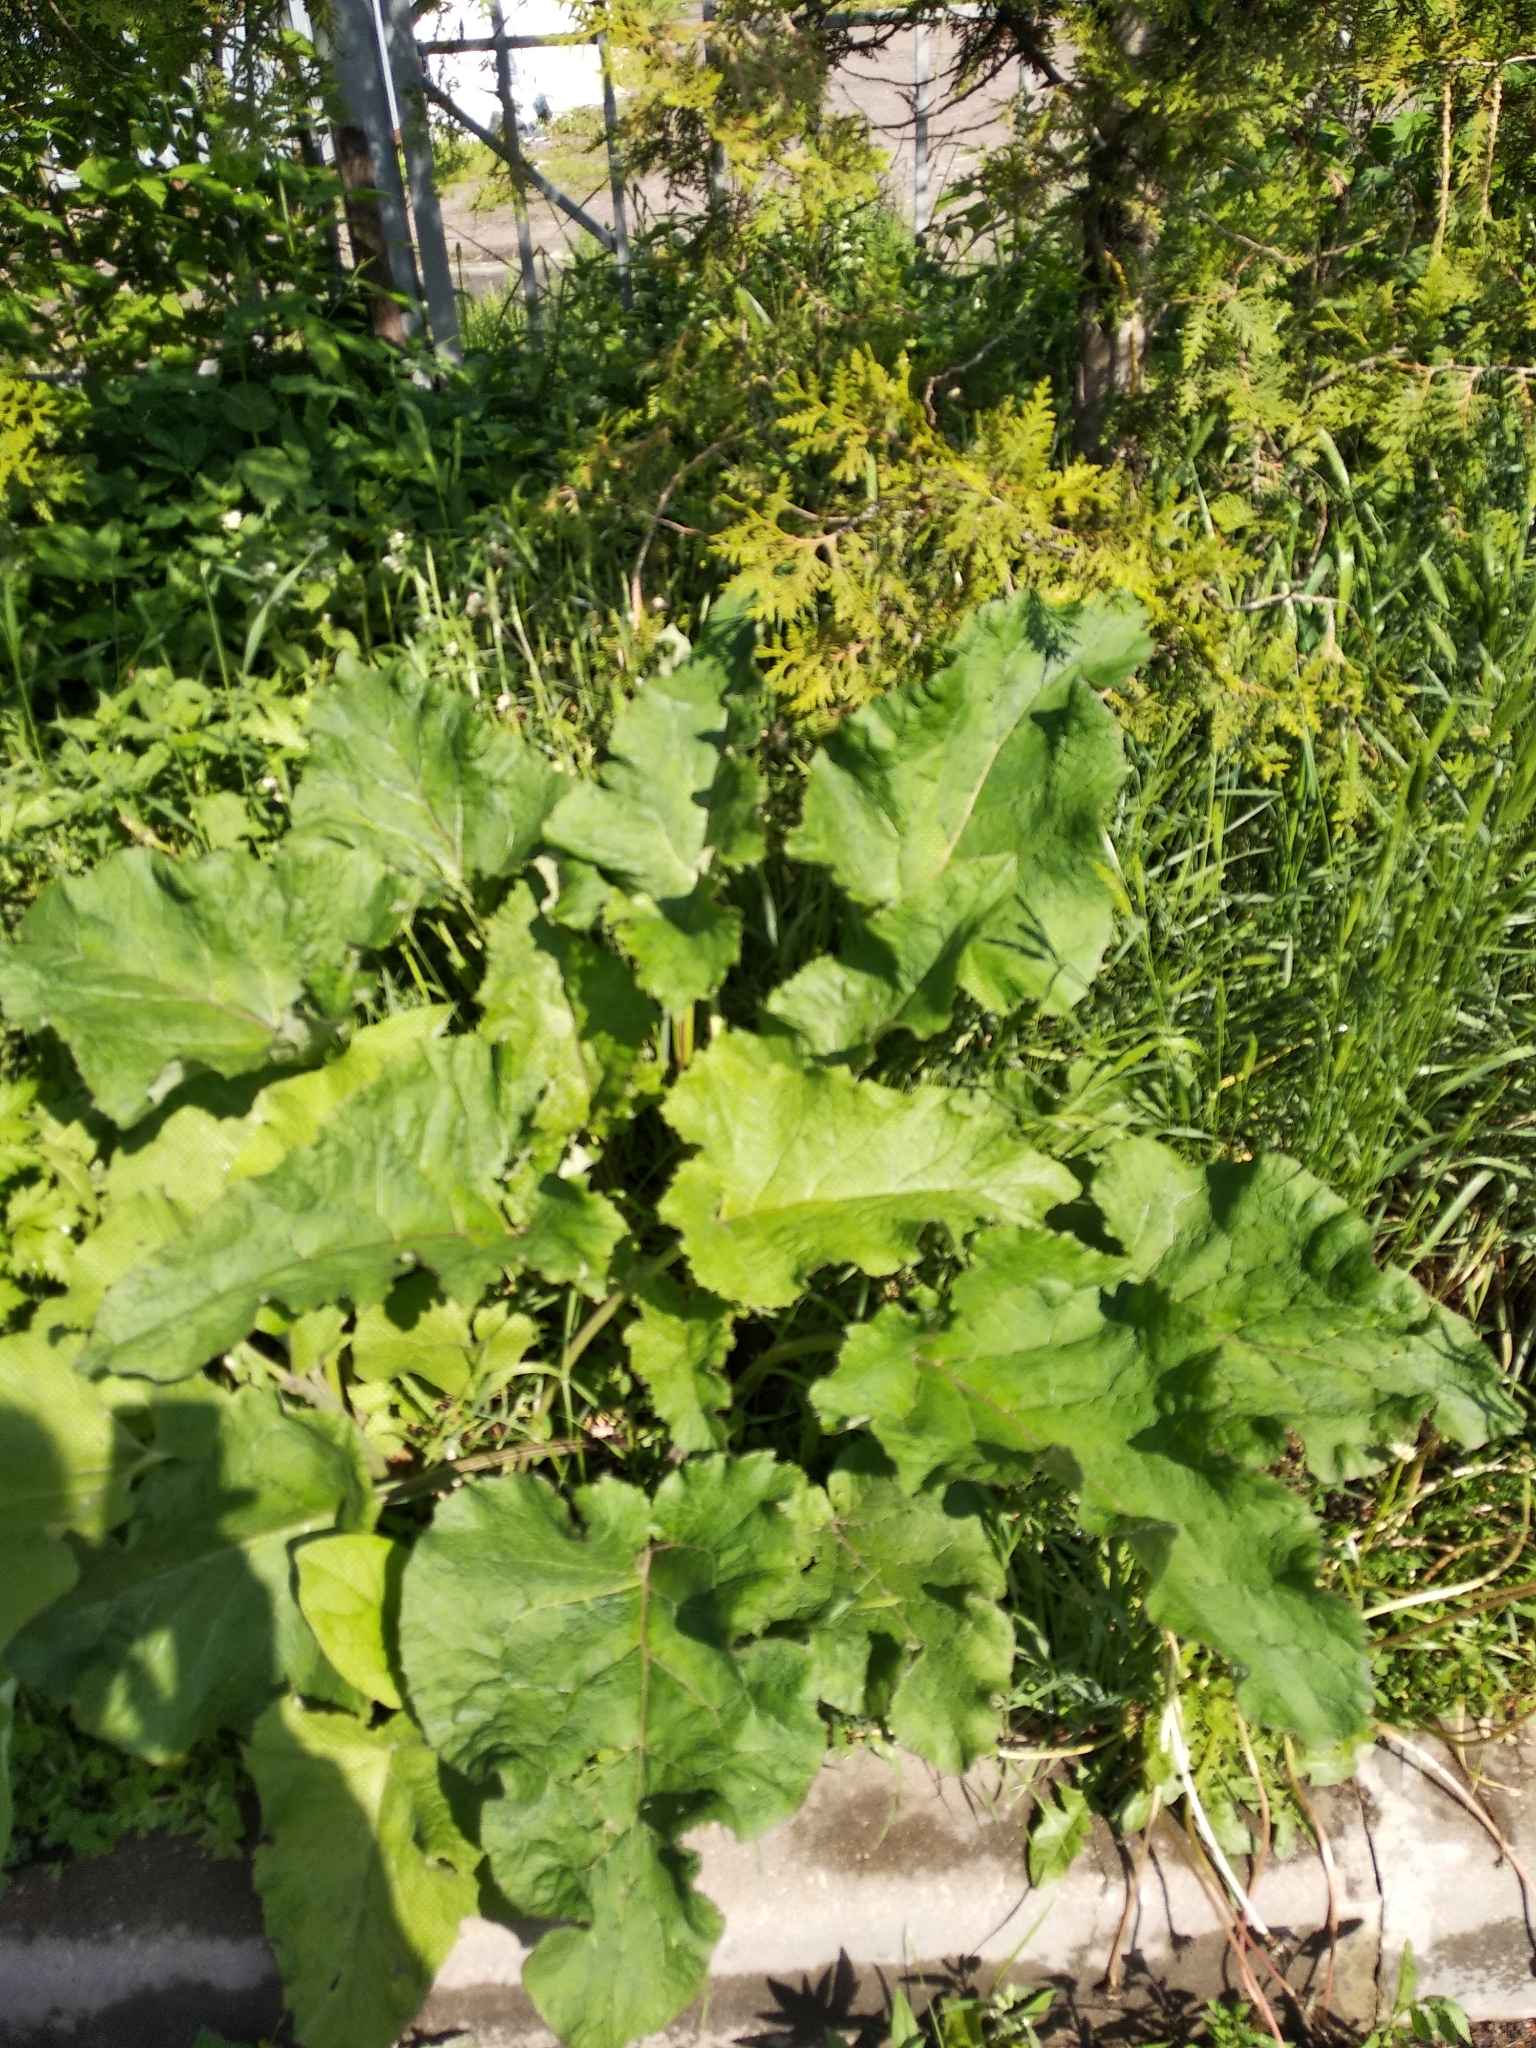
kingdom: Plantae
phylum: Tracheophyta
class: Magnoliopsida
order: Asterales
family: Asteraceae
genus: Arctium
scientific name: Arctium
